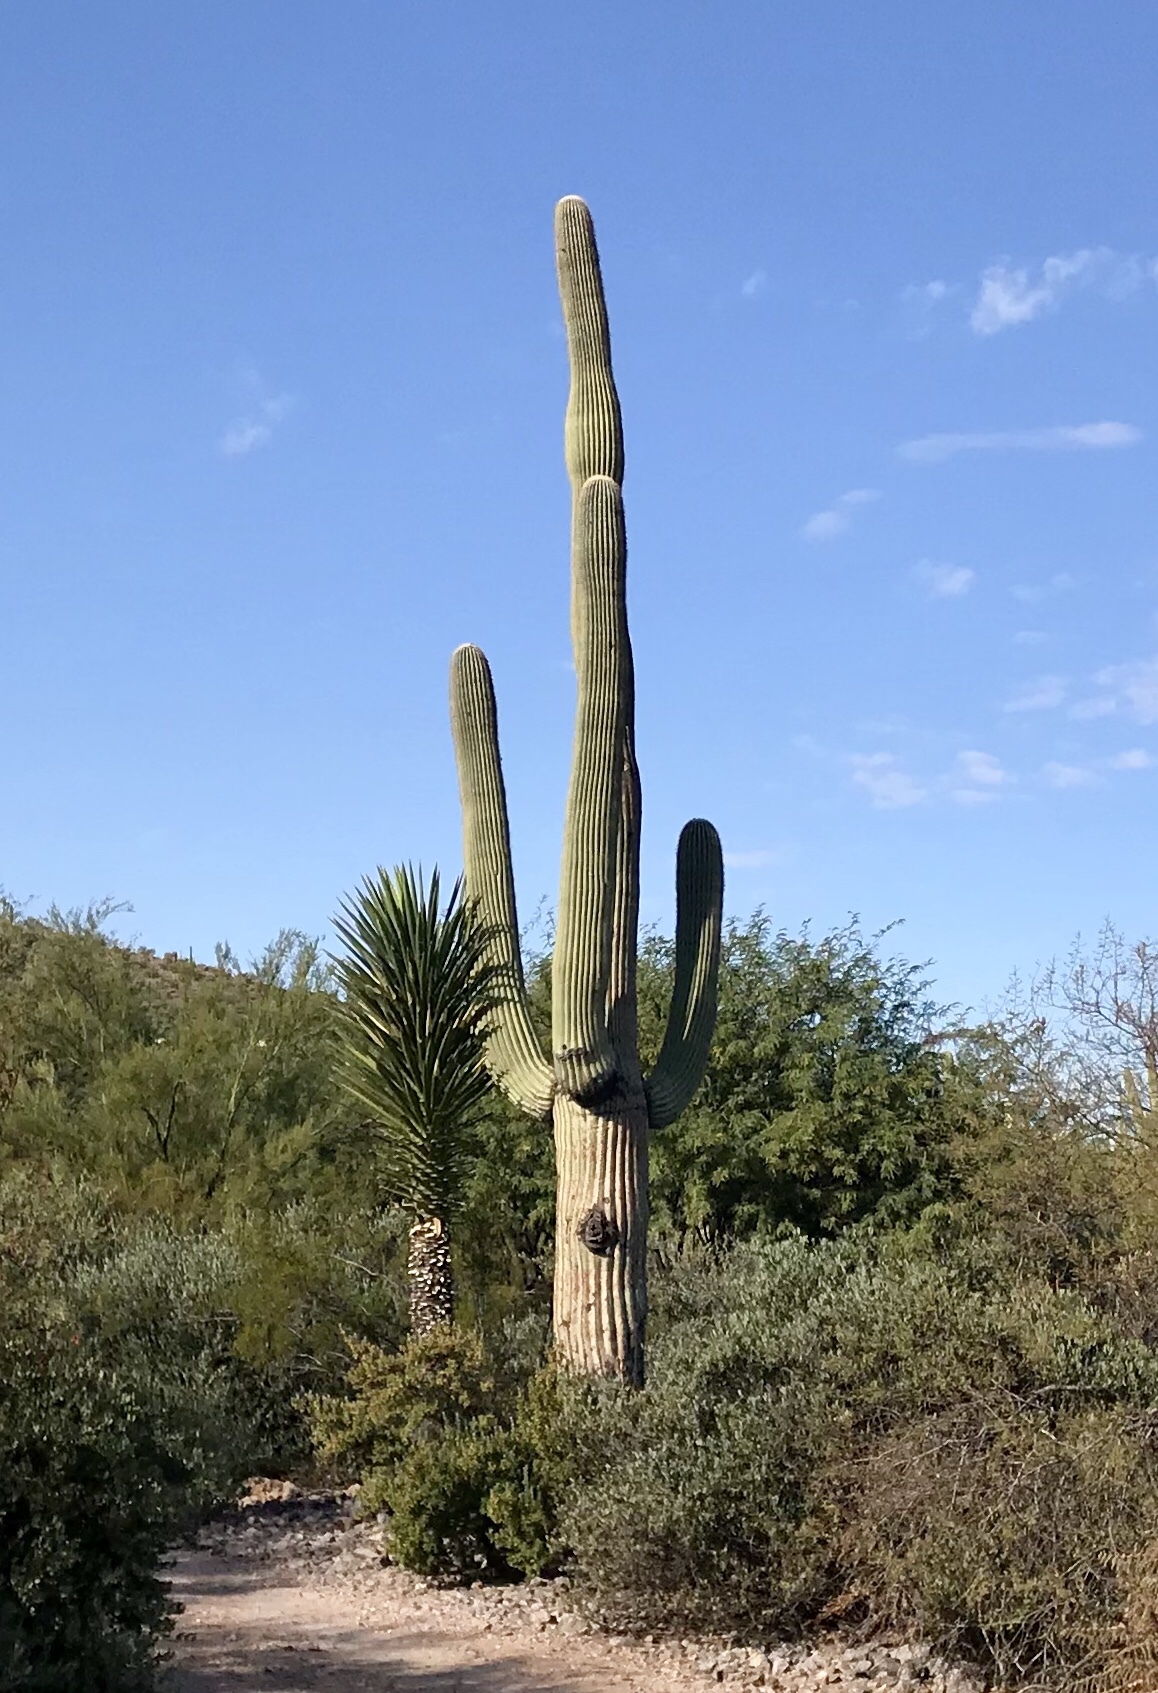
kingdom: Plantae
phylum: Tracheophyta
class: Magnoliopsida
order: Caryophyllales
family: Cactaceae
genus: Carnegiea
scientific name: Carnegiea gigantea
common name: Saguaro
